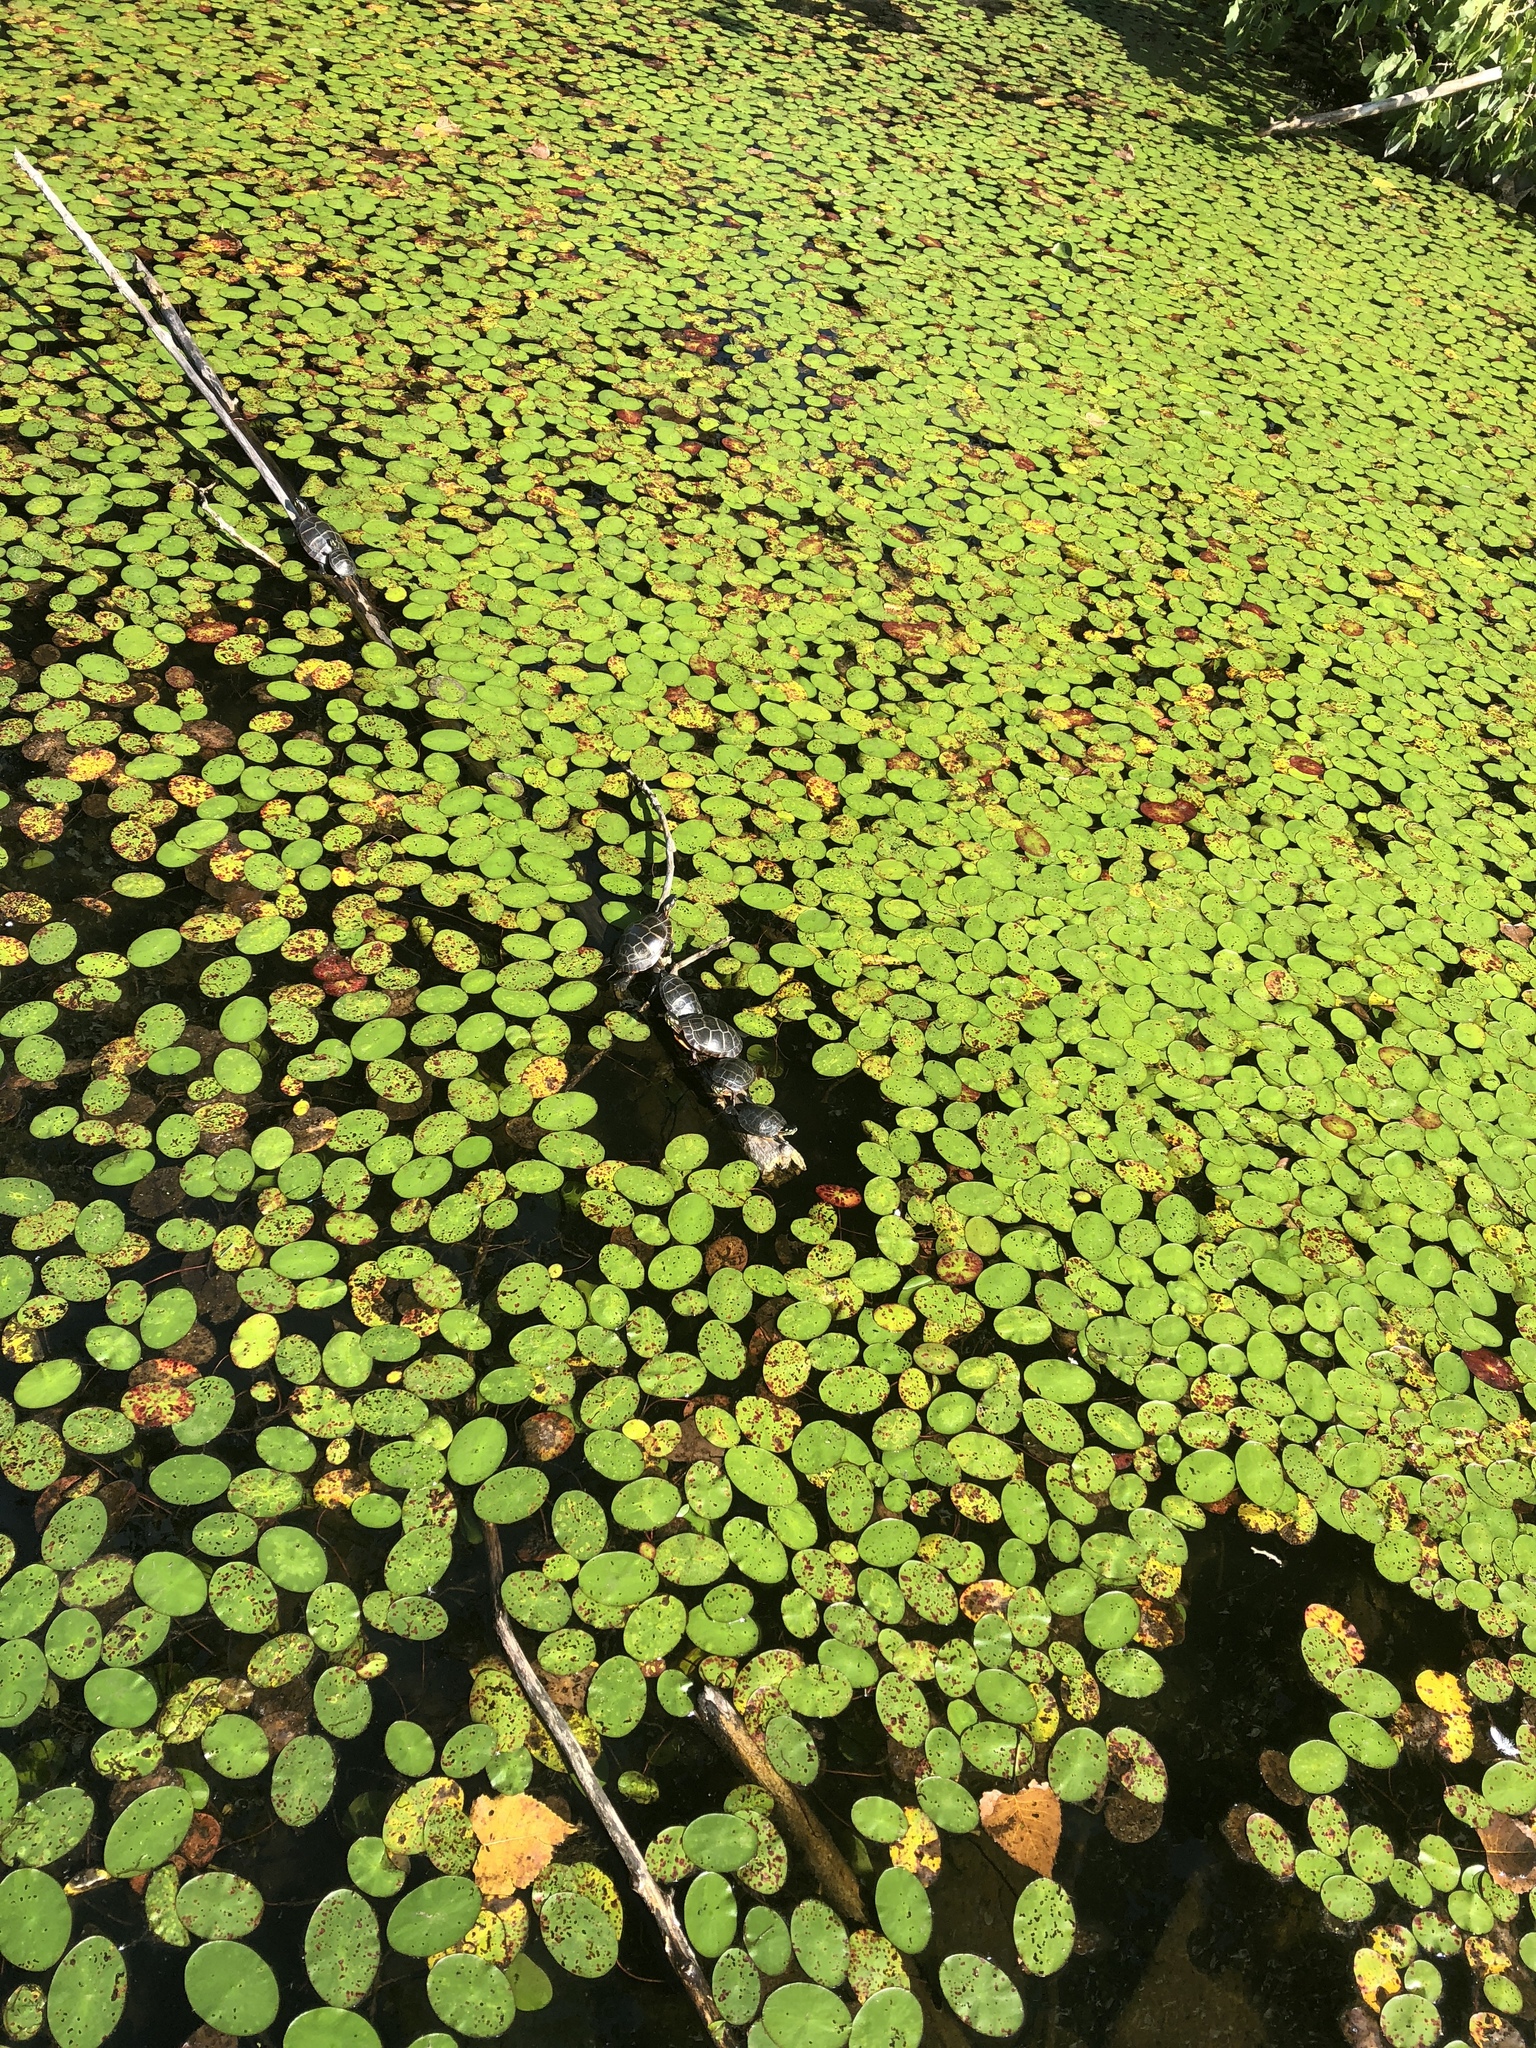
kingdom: Animalia
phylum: Chordata
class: Testudines
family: Emydidae
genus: Chrysemys
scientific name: Chrysemys picta
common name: Painted turtle
